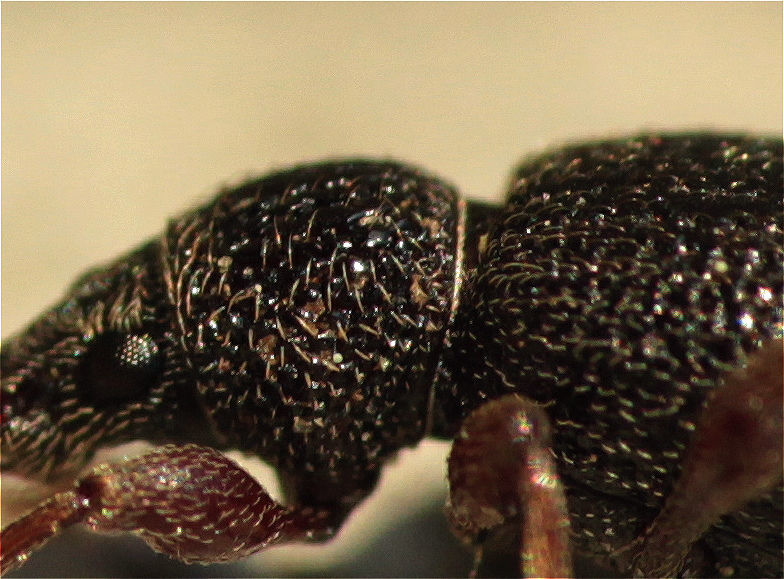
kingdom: Animalia
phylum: Arthropoda
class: Insecta
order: Coleoptera
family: Curculionidae
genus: Otiorhynchus
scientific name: Otiorhynchus ovatus
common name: Strawberry root weevil
